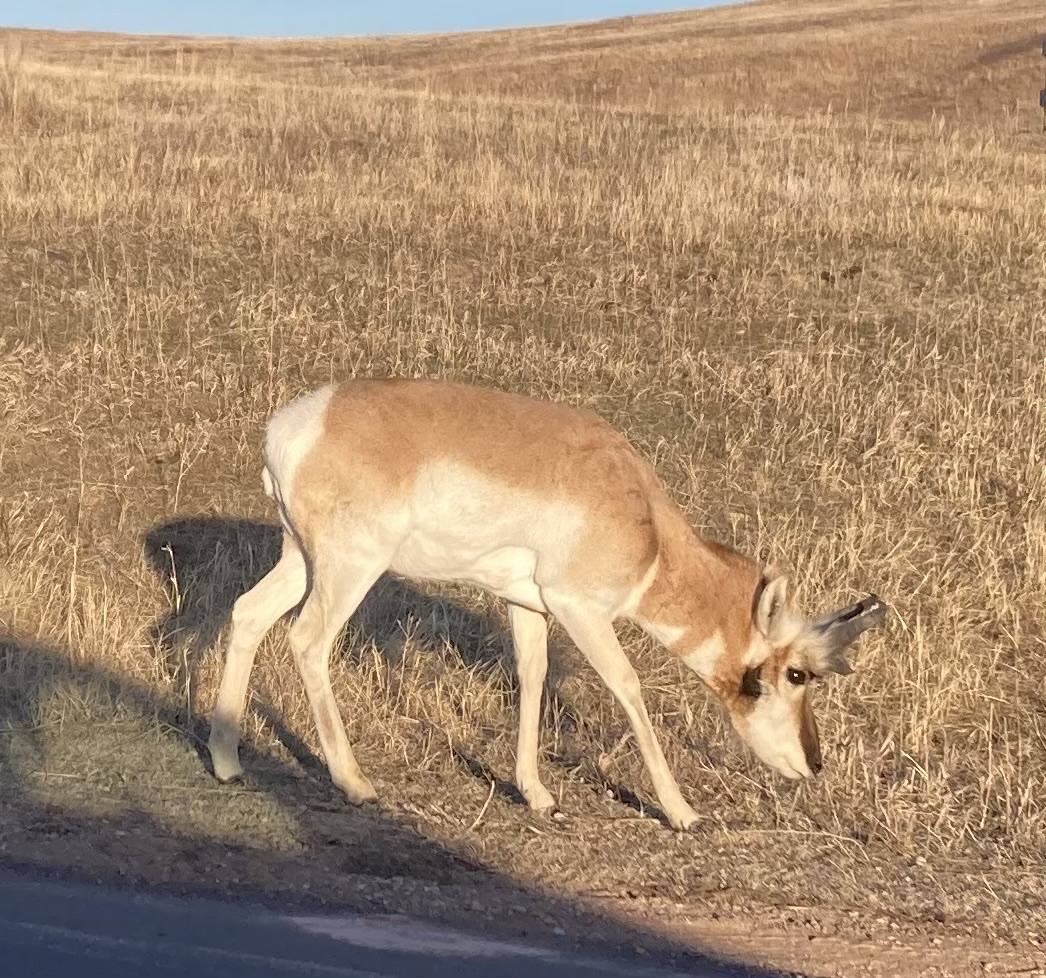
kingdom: Animalia
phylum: Chordata
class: Mammalia
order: Artiodactyla
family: Antilocapridae
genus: Antilocapra
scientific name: Antilocapra americana
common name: Pronghorn
